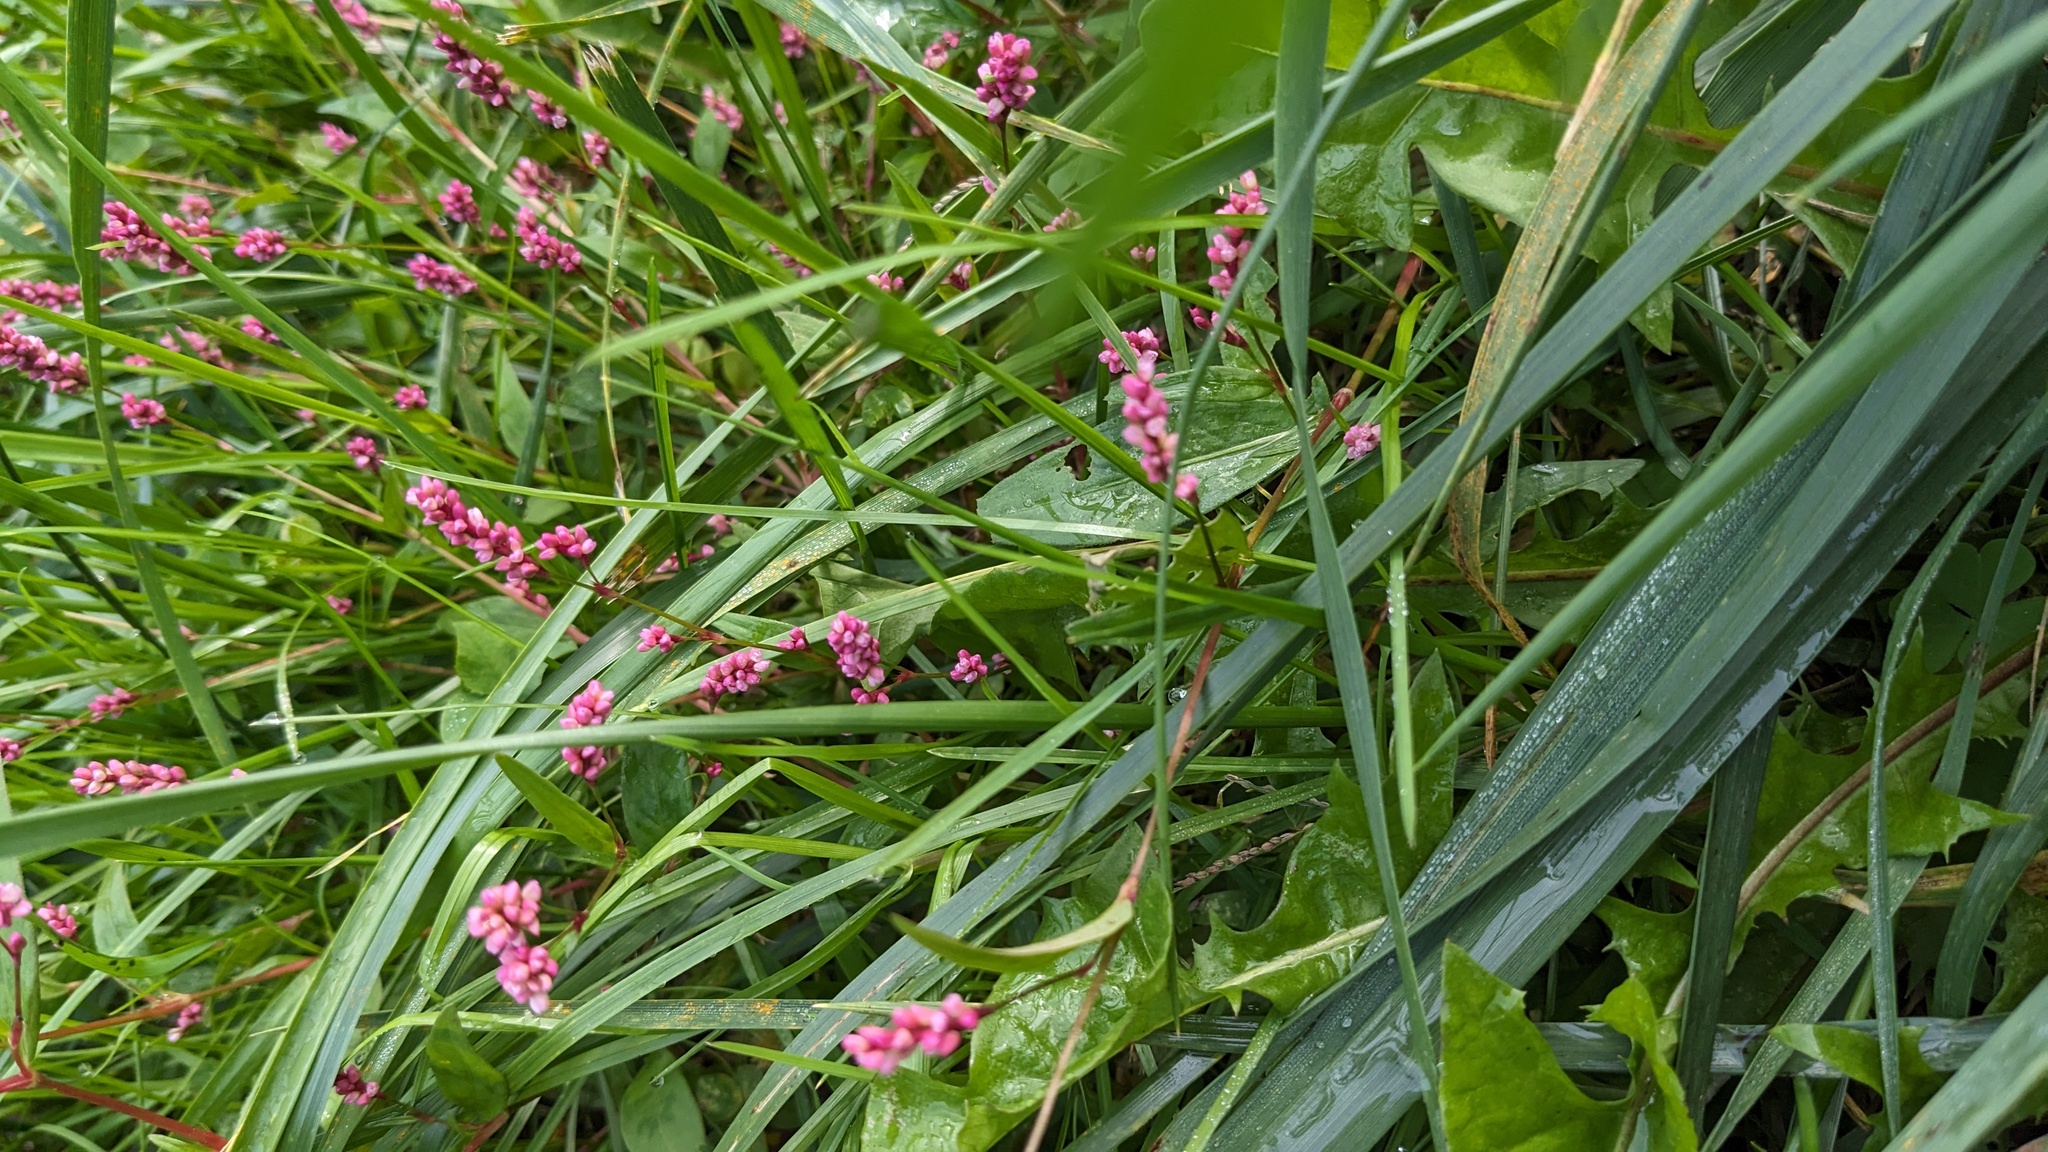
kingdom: Plantae
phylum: Tracheophyta
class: Magnoliopsida
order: Caryophyllales
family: Polygonaceae
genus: Persicaria
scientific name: Persicaria longiseta
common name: Bristly lady's-thumb
